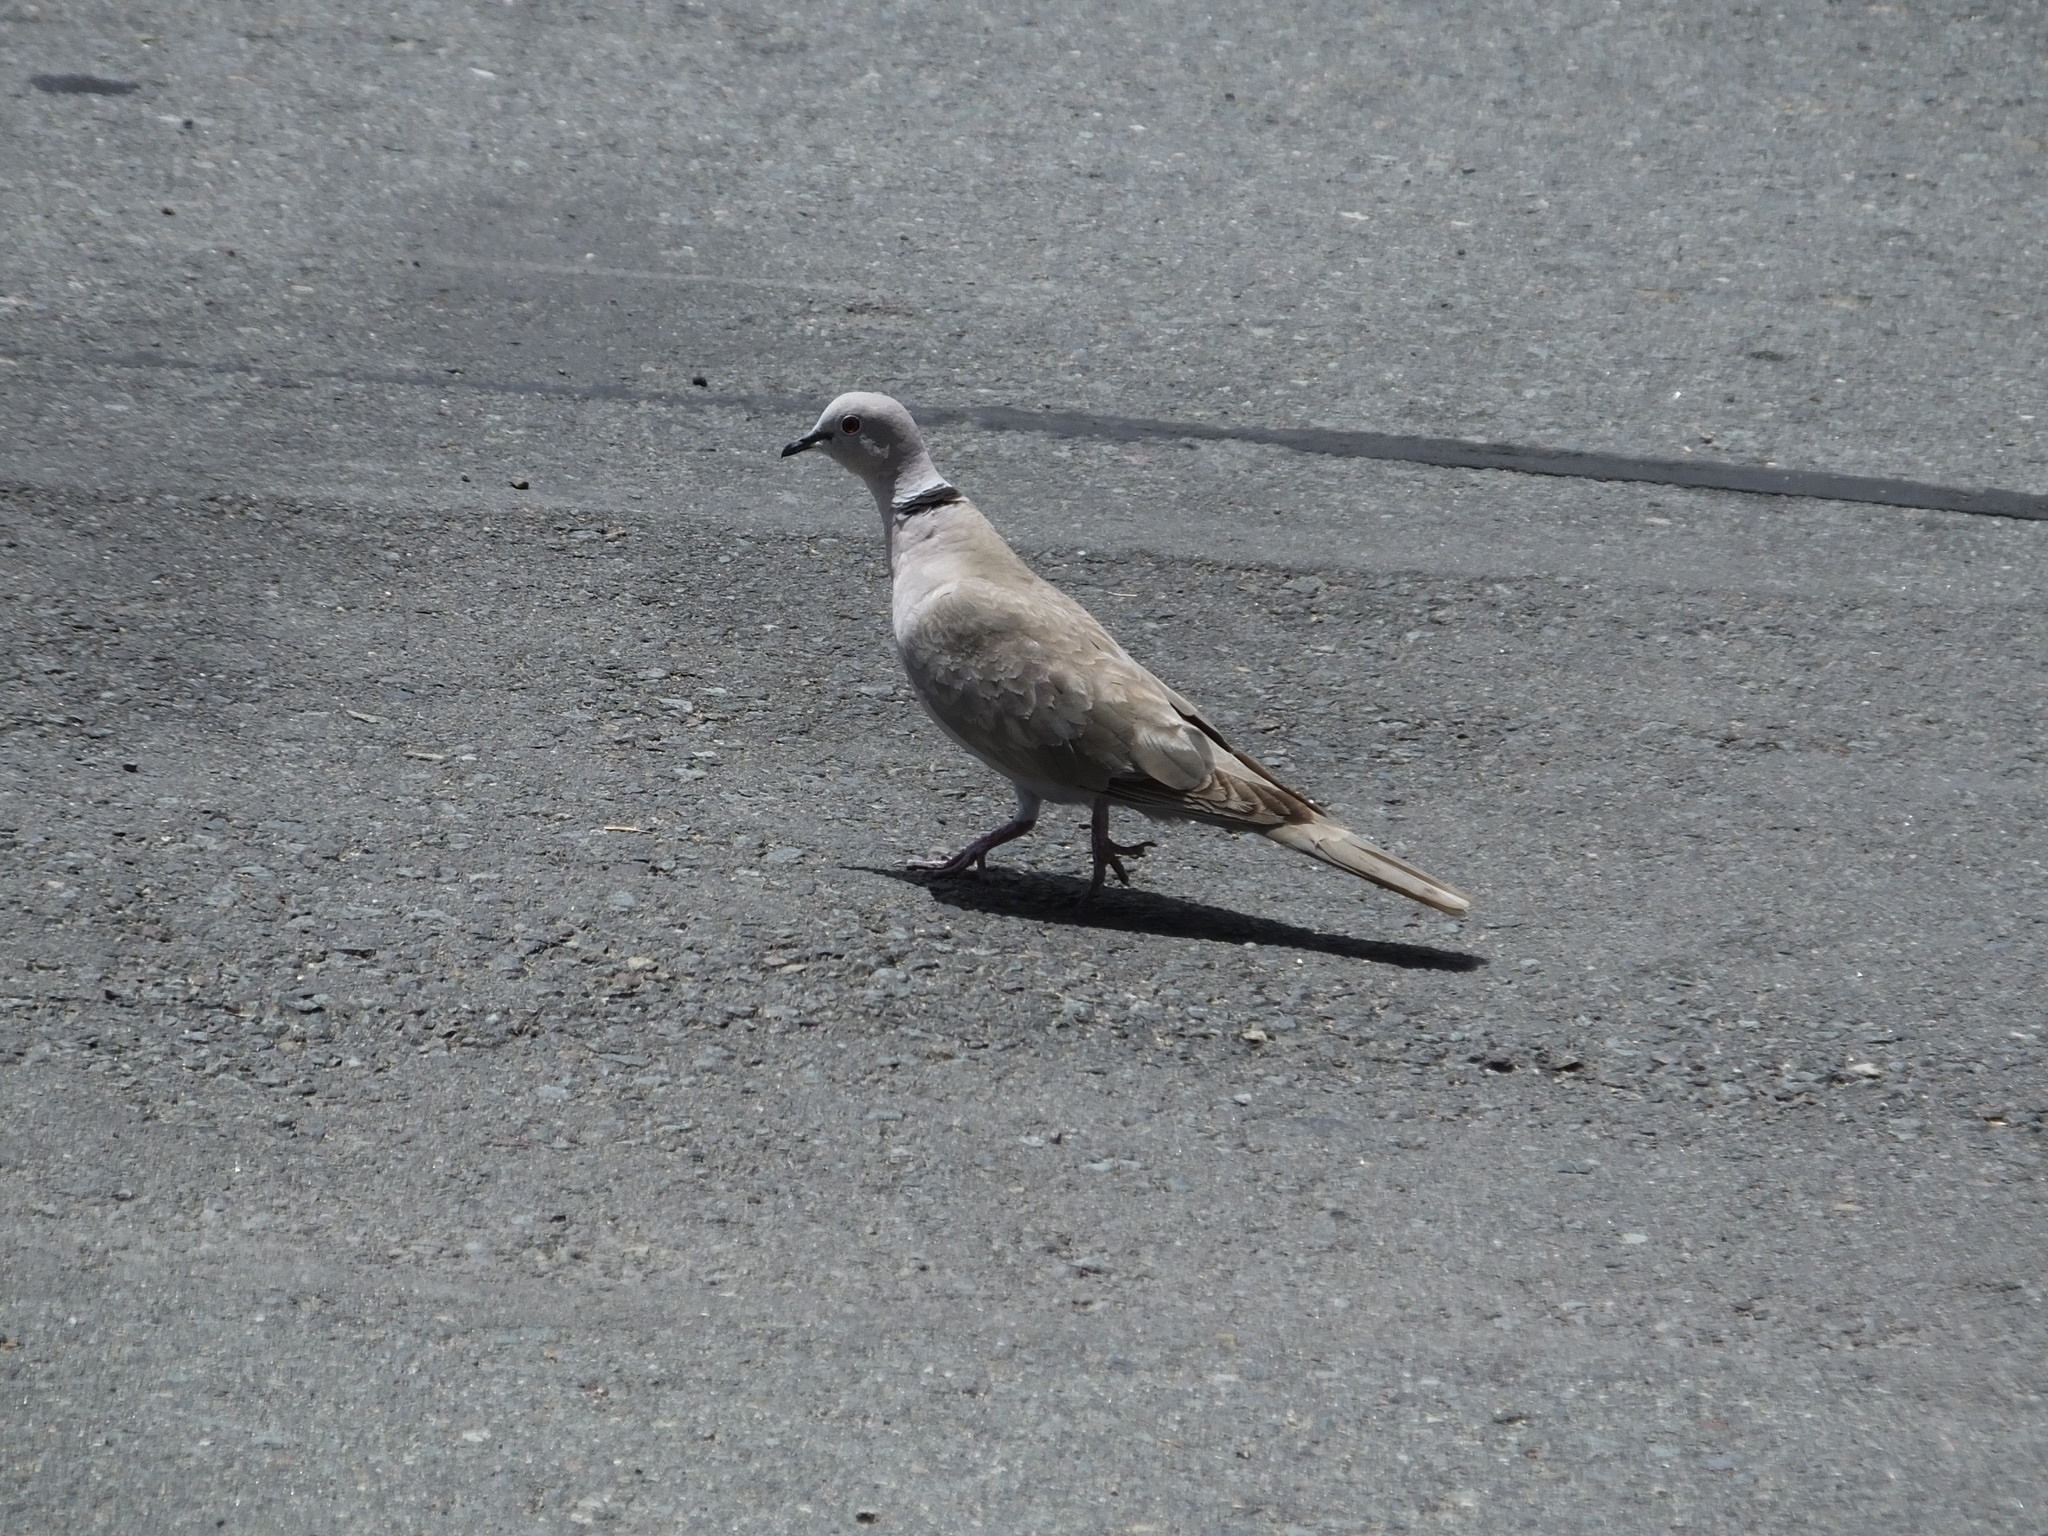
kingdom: Animalia
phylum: Chordata
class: Aves
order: Columbiformes
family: Columbidae
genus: Streptopelia
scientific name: Streptopelia decaocto
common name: Eurasian collared dove
